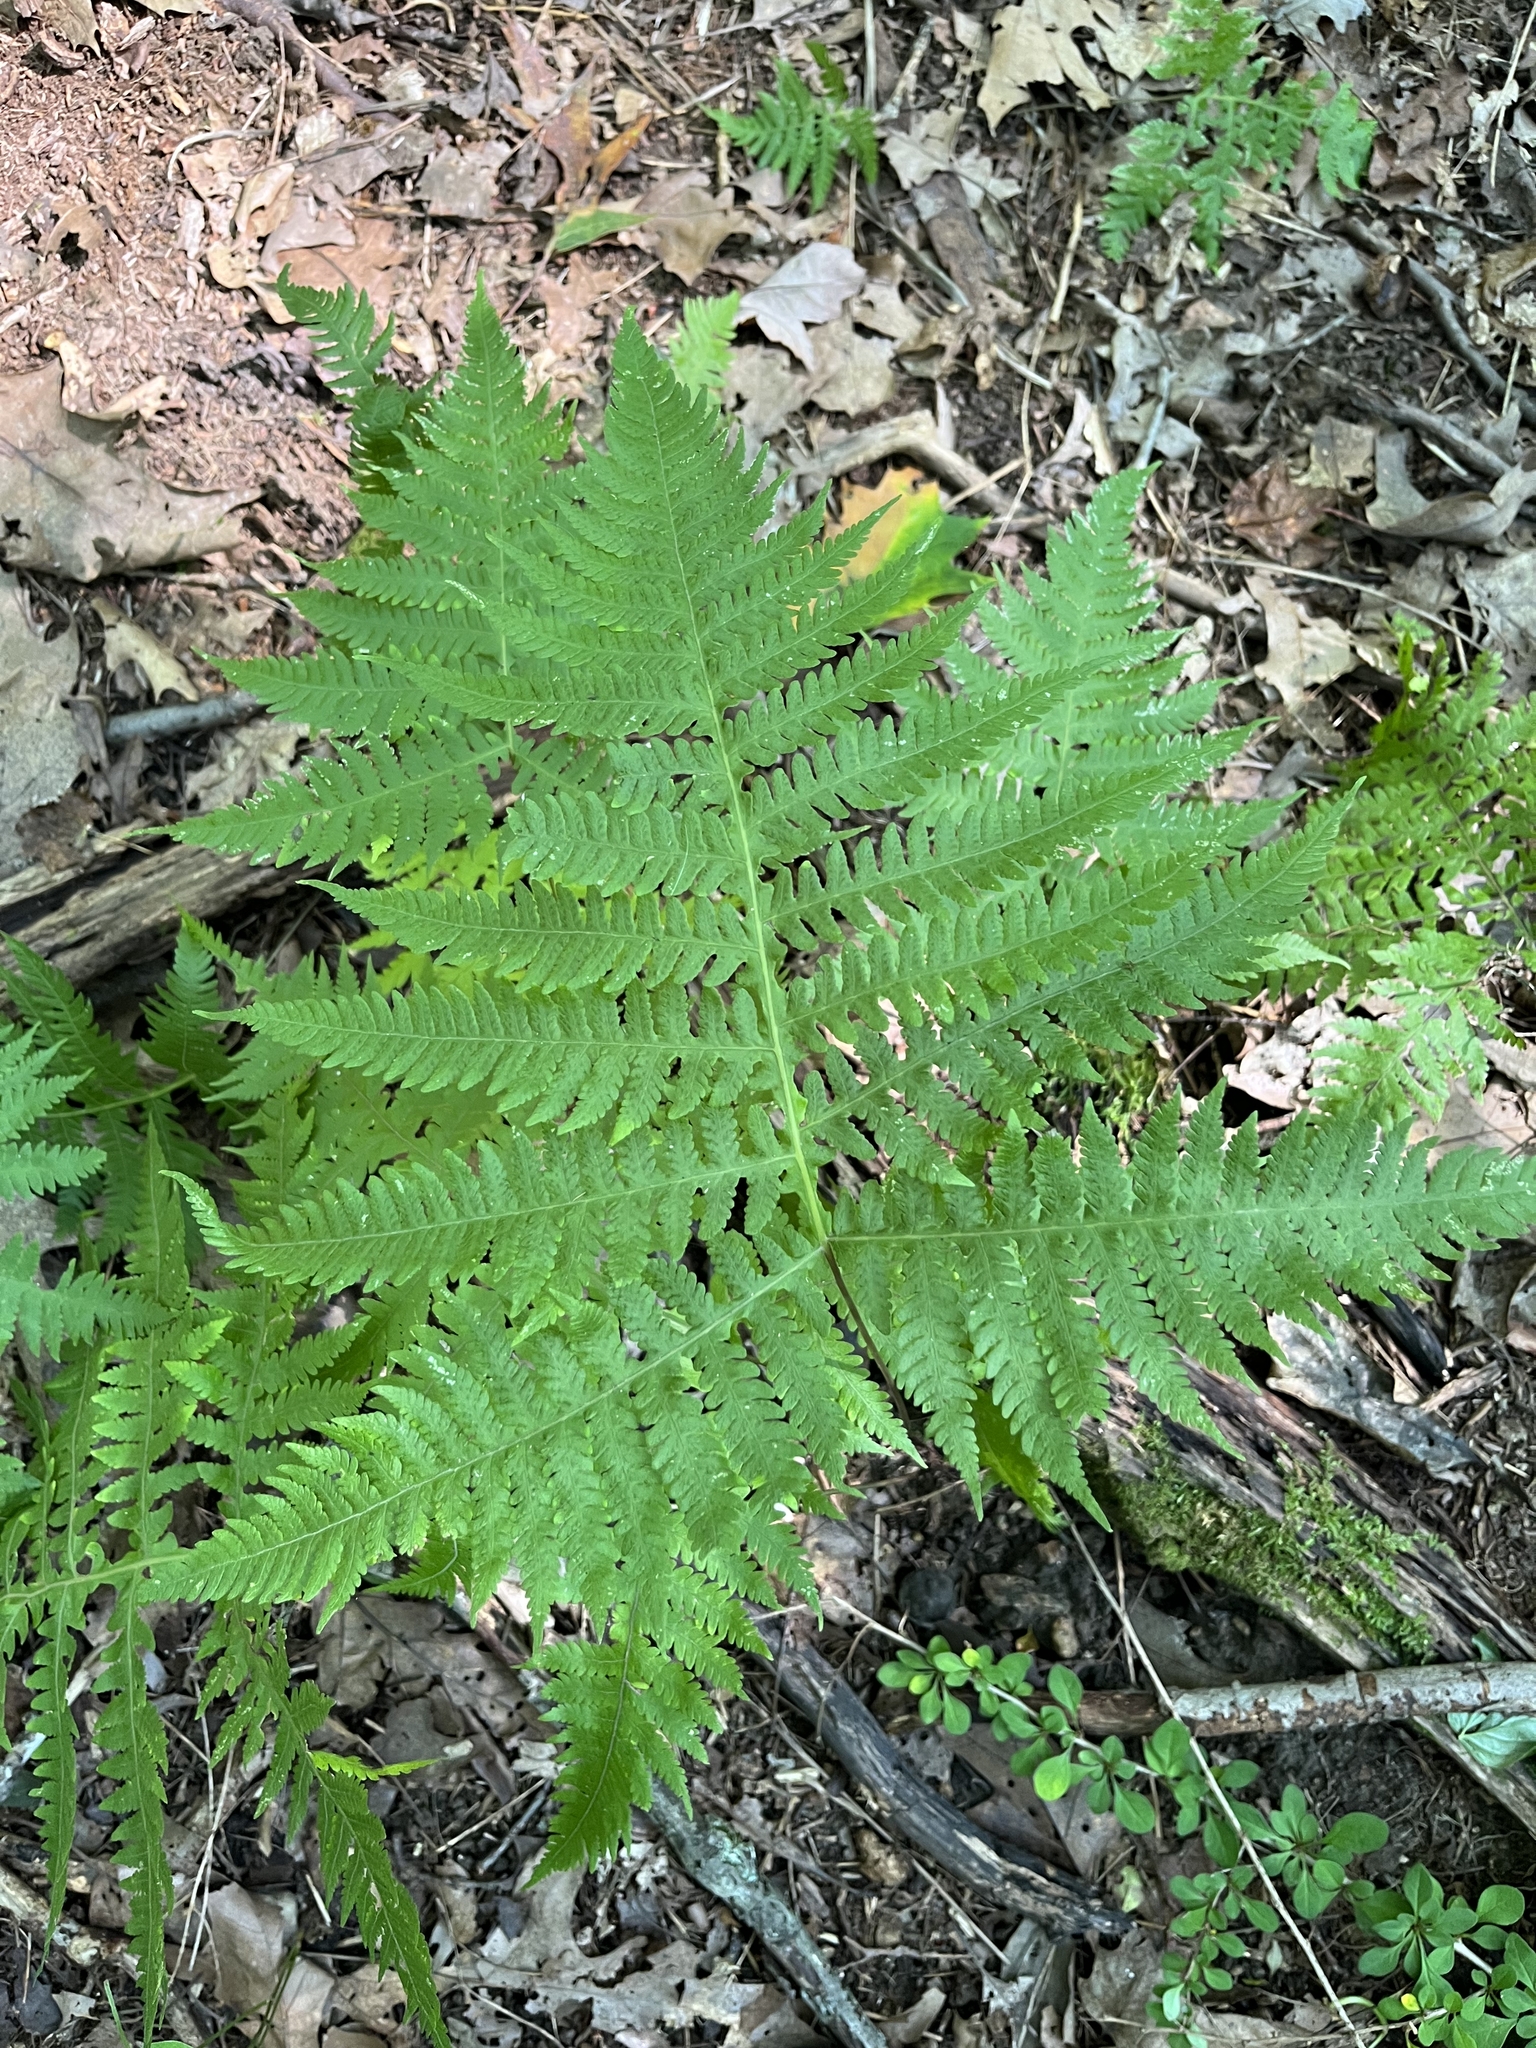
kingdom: Plantae
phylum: Tracheophyta
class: Polypodiopsida
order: Polypodiales
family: Thelypteridaceae
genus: Phegopteris
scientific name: Phegopteris hexagonoptera
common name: Broad beech fern
